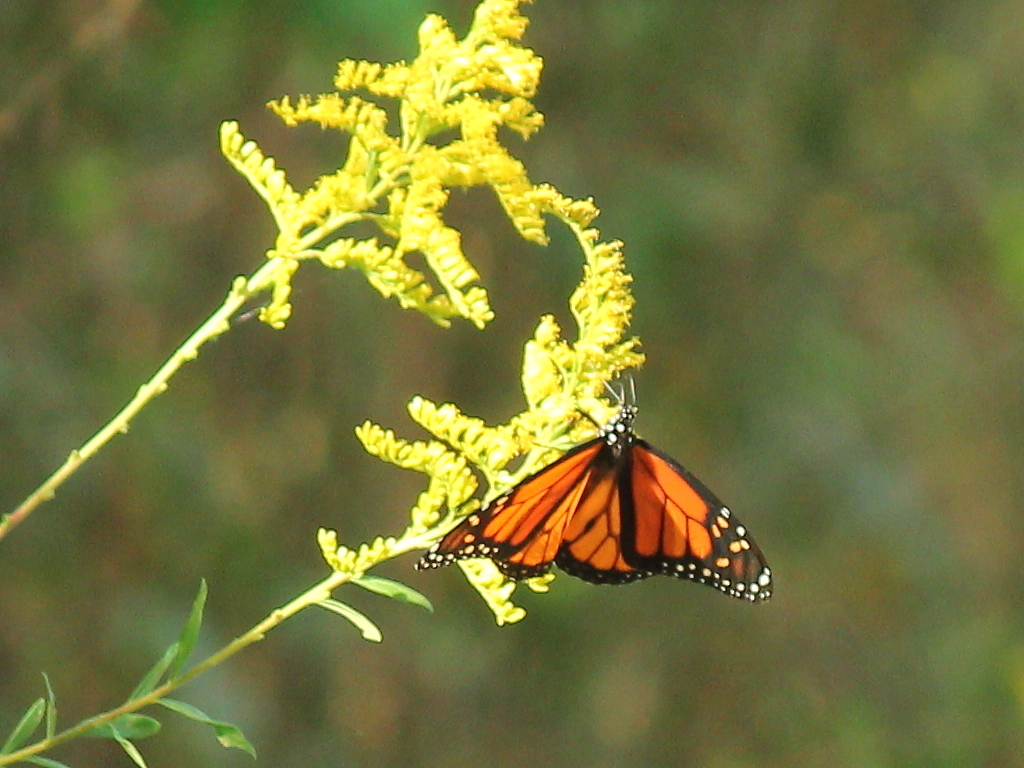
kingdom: Animalia
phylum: Arthropoda
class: Insecta
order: Lepidoptera
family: Nymphalidae
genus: Danaus
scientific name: Danaus plexippus
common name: Monarch
